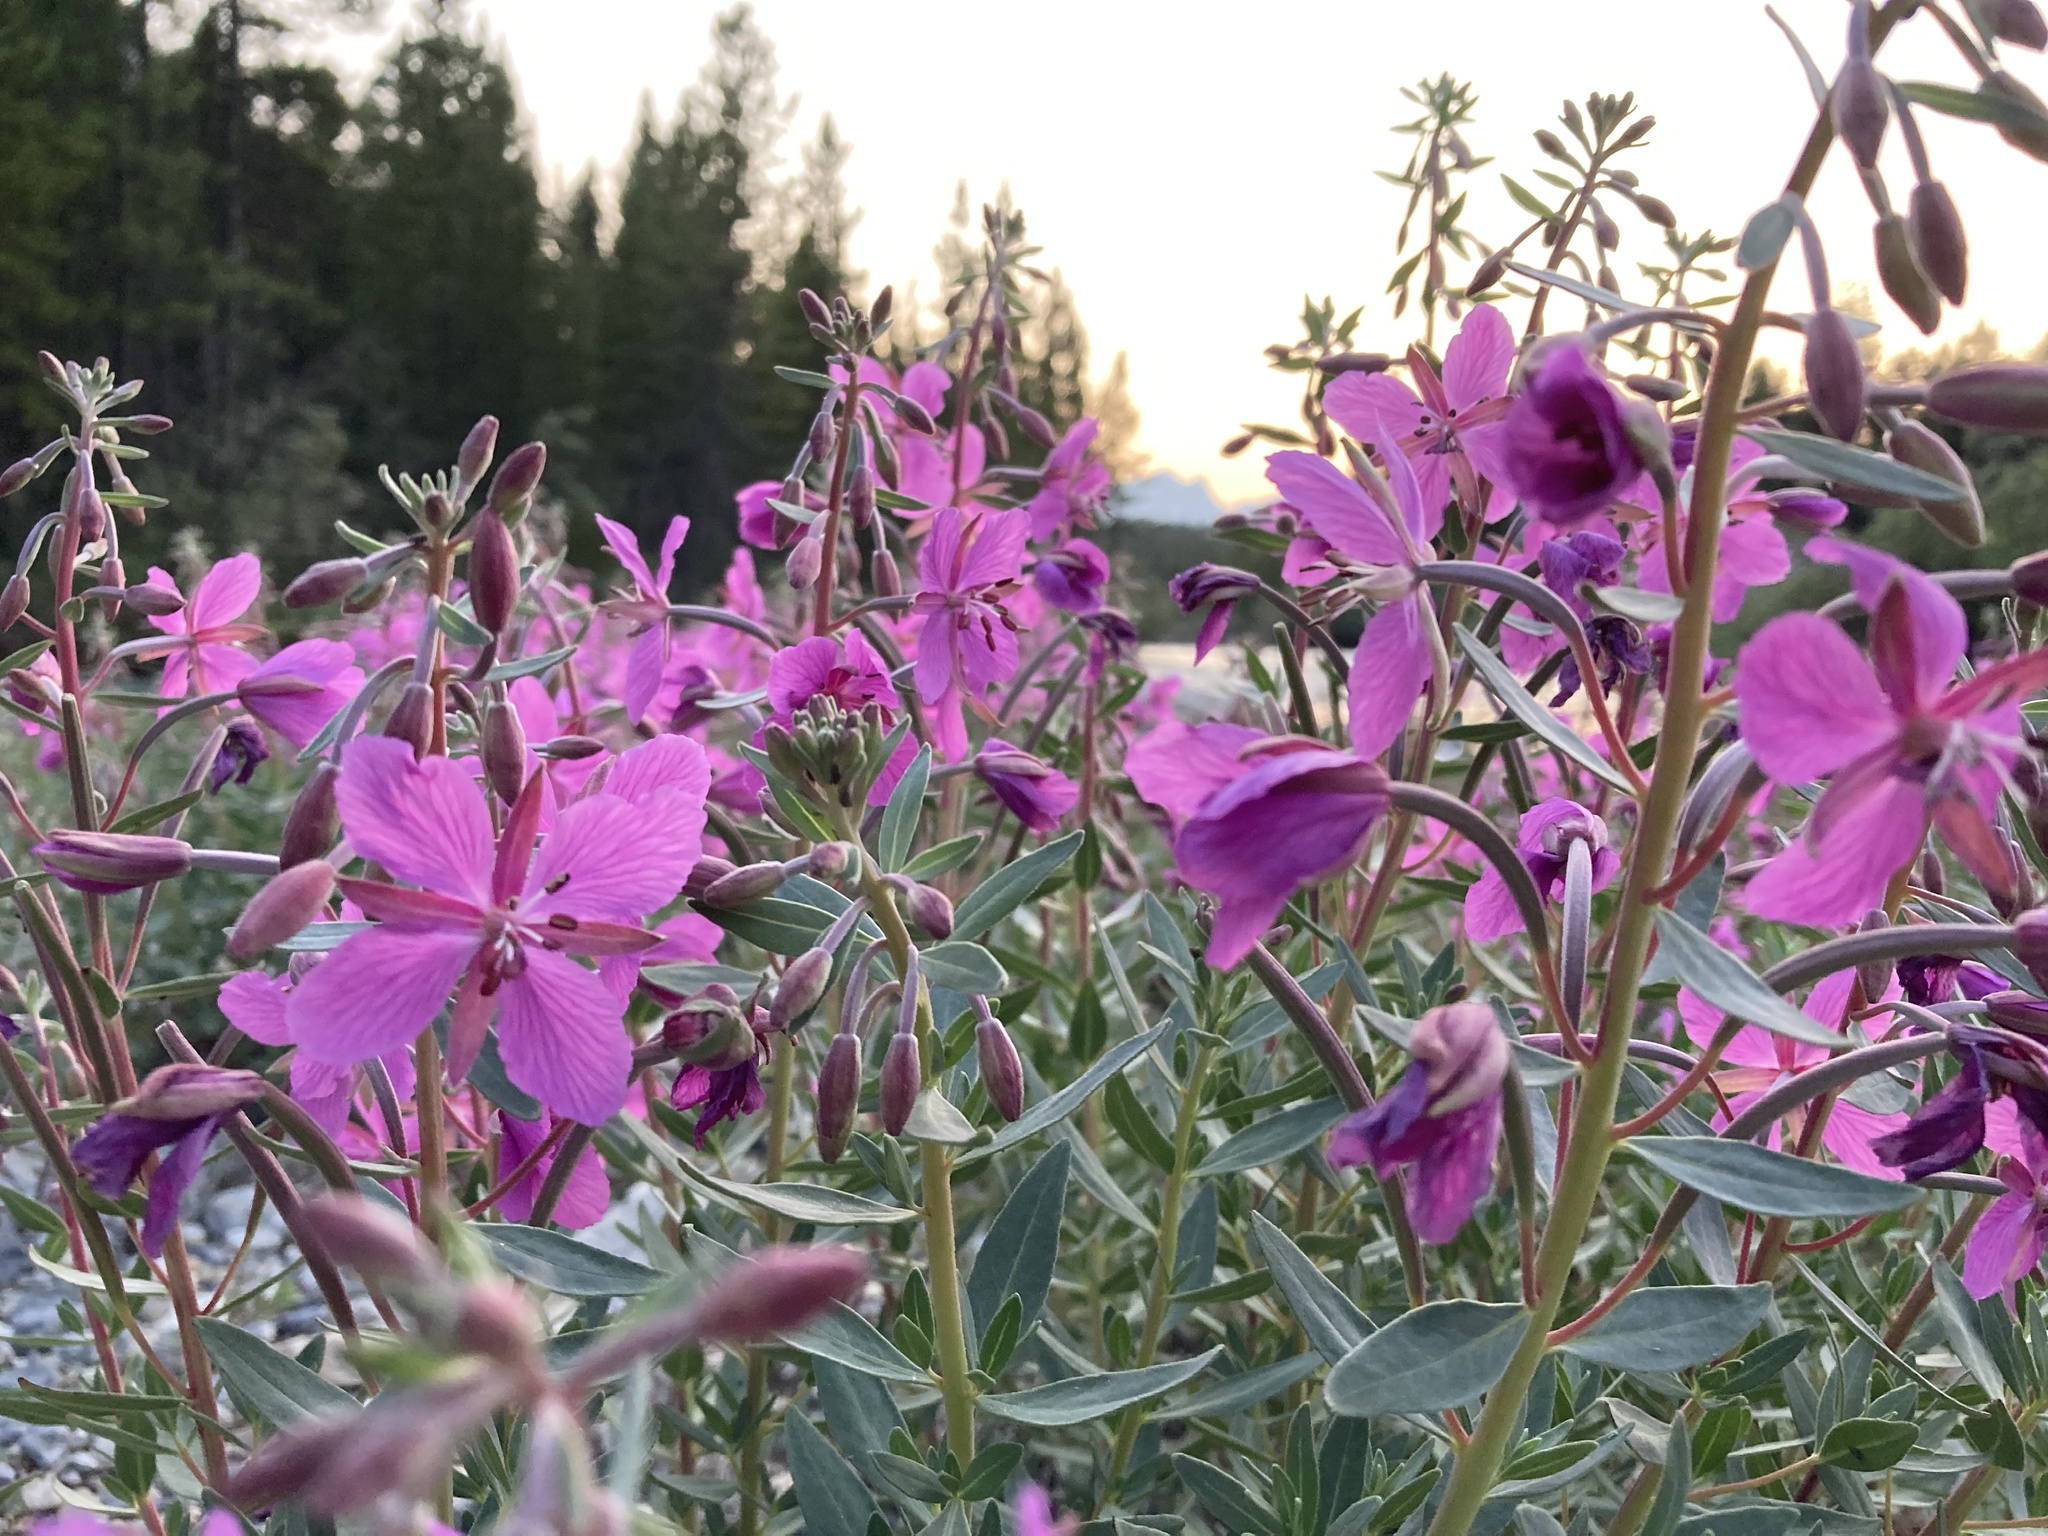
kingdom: Plantae
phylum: Tracheophyta
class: Magnoliopsida
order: Myrtales
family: Onagraceae
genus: Chamaenerion
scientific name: Chamaenerion latifolium
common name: Dwarf fireweed
